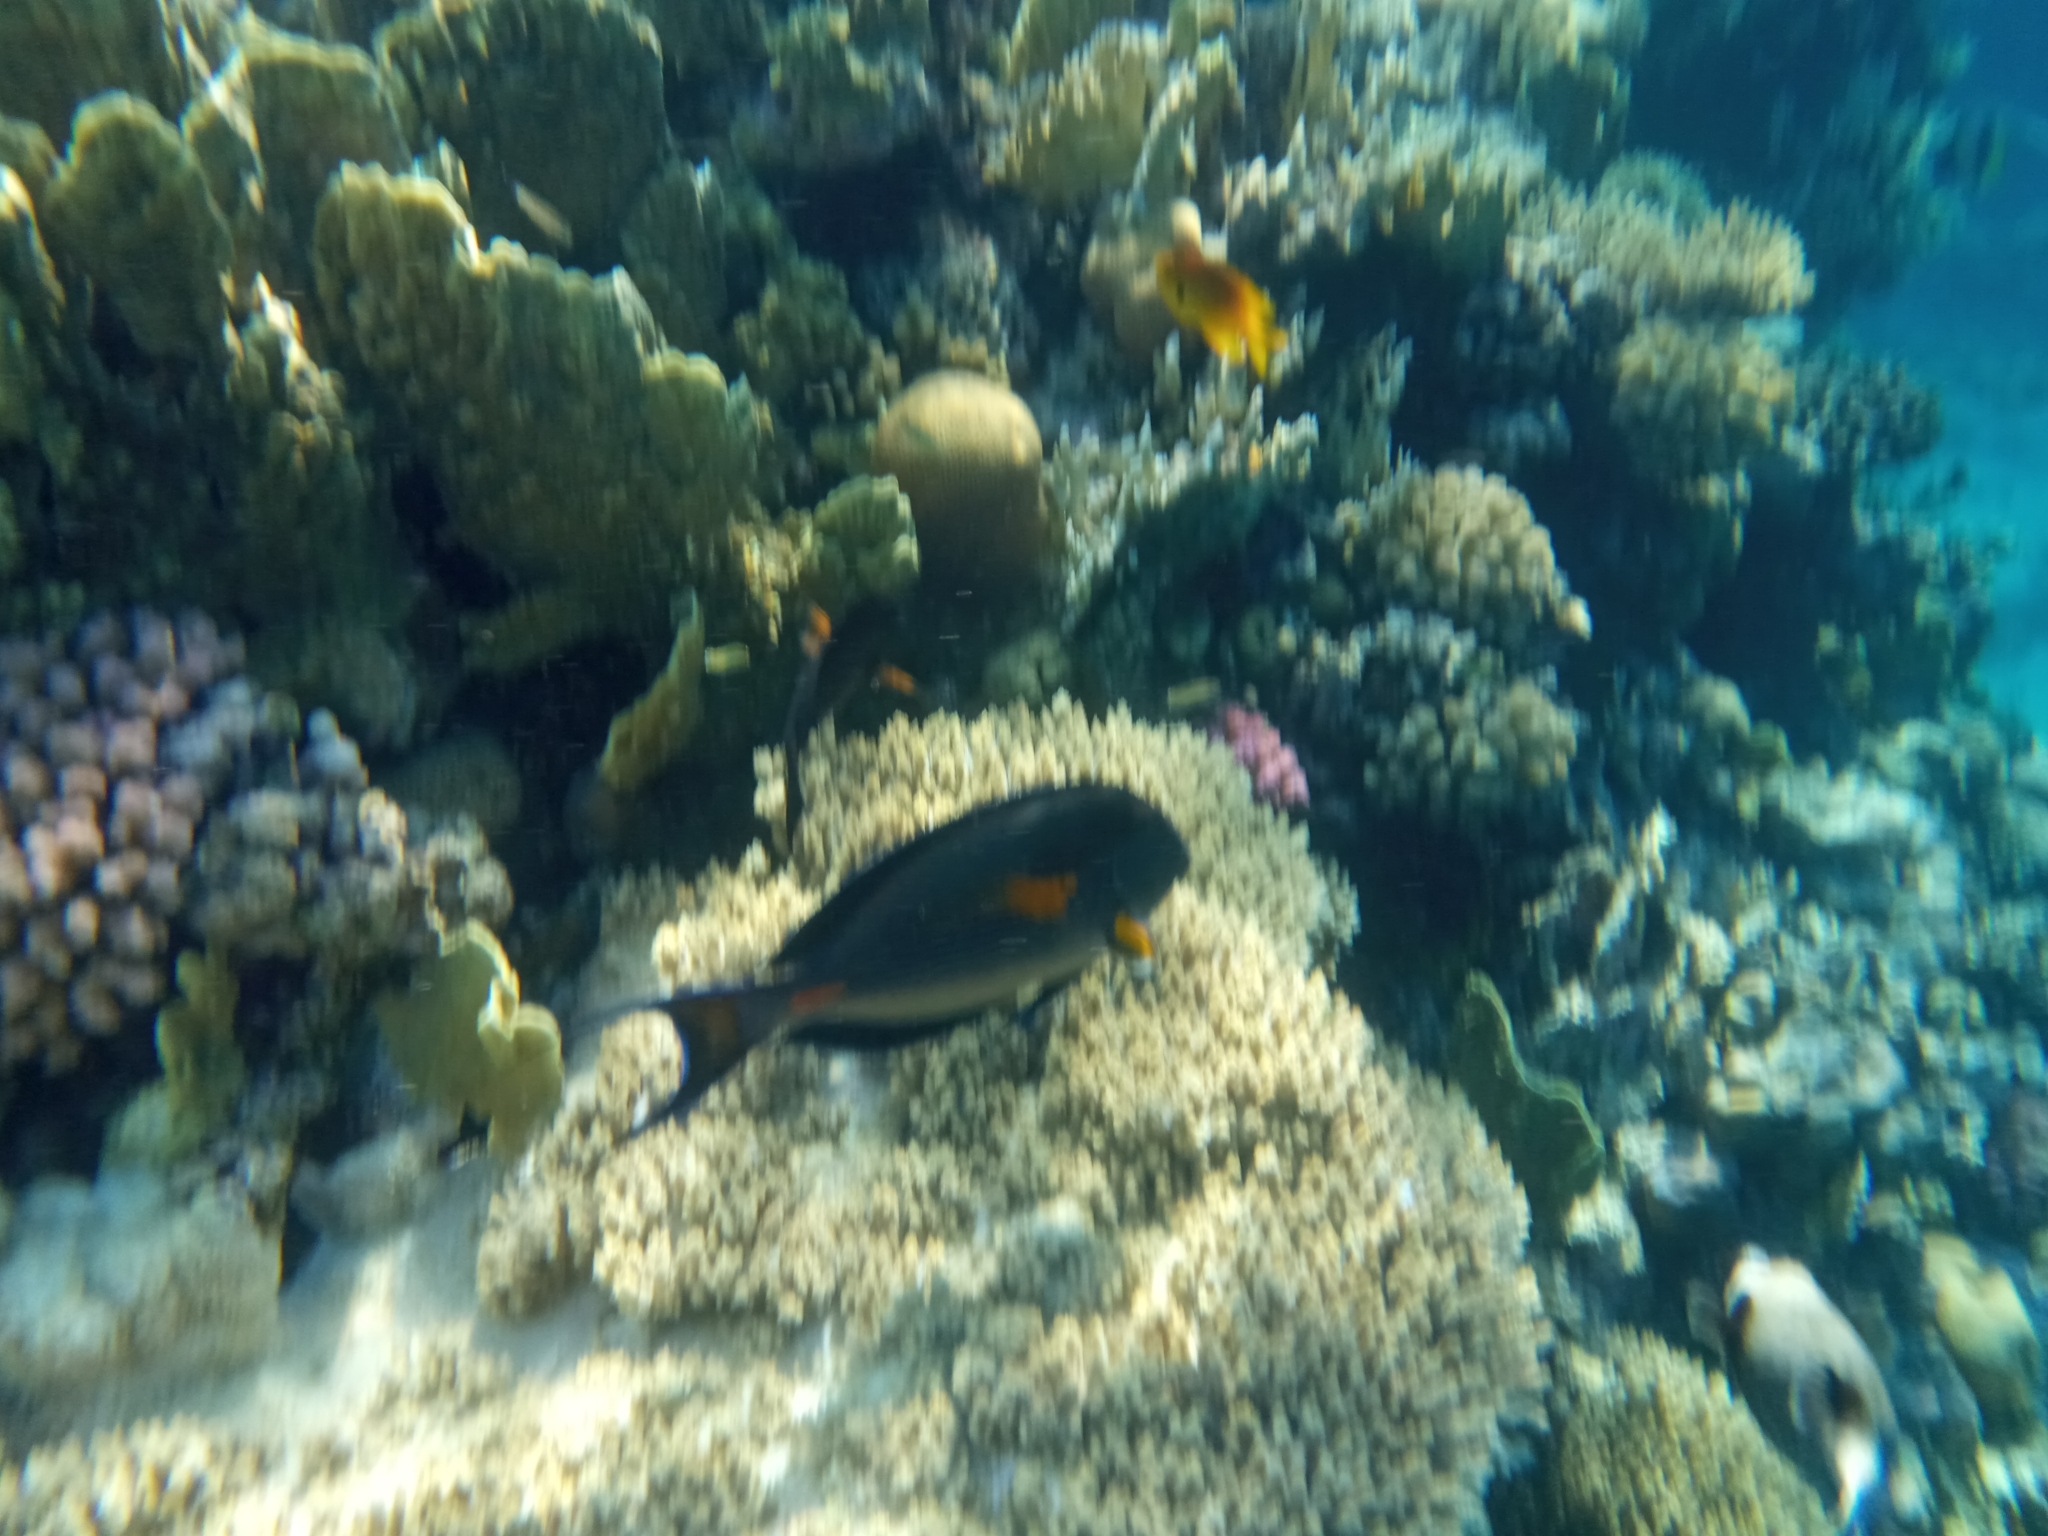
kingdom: Animalia
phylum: Chordata
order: Perciformes
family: Acanthuridae
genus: Acanthurus
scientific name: Acanthurus sohal
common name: Red sea surgeonfish
